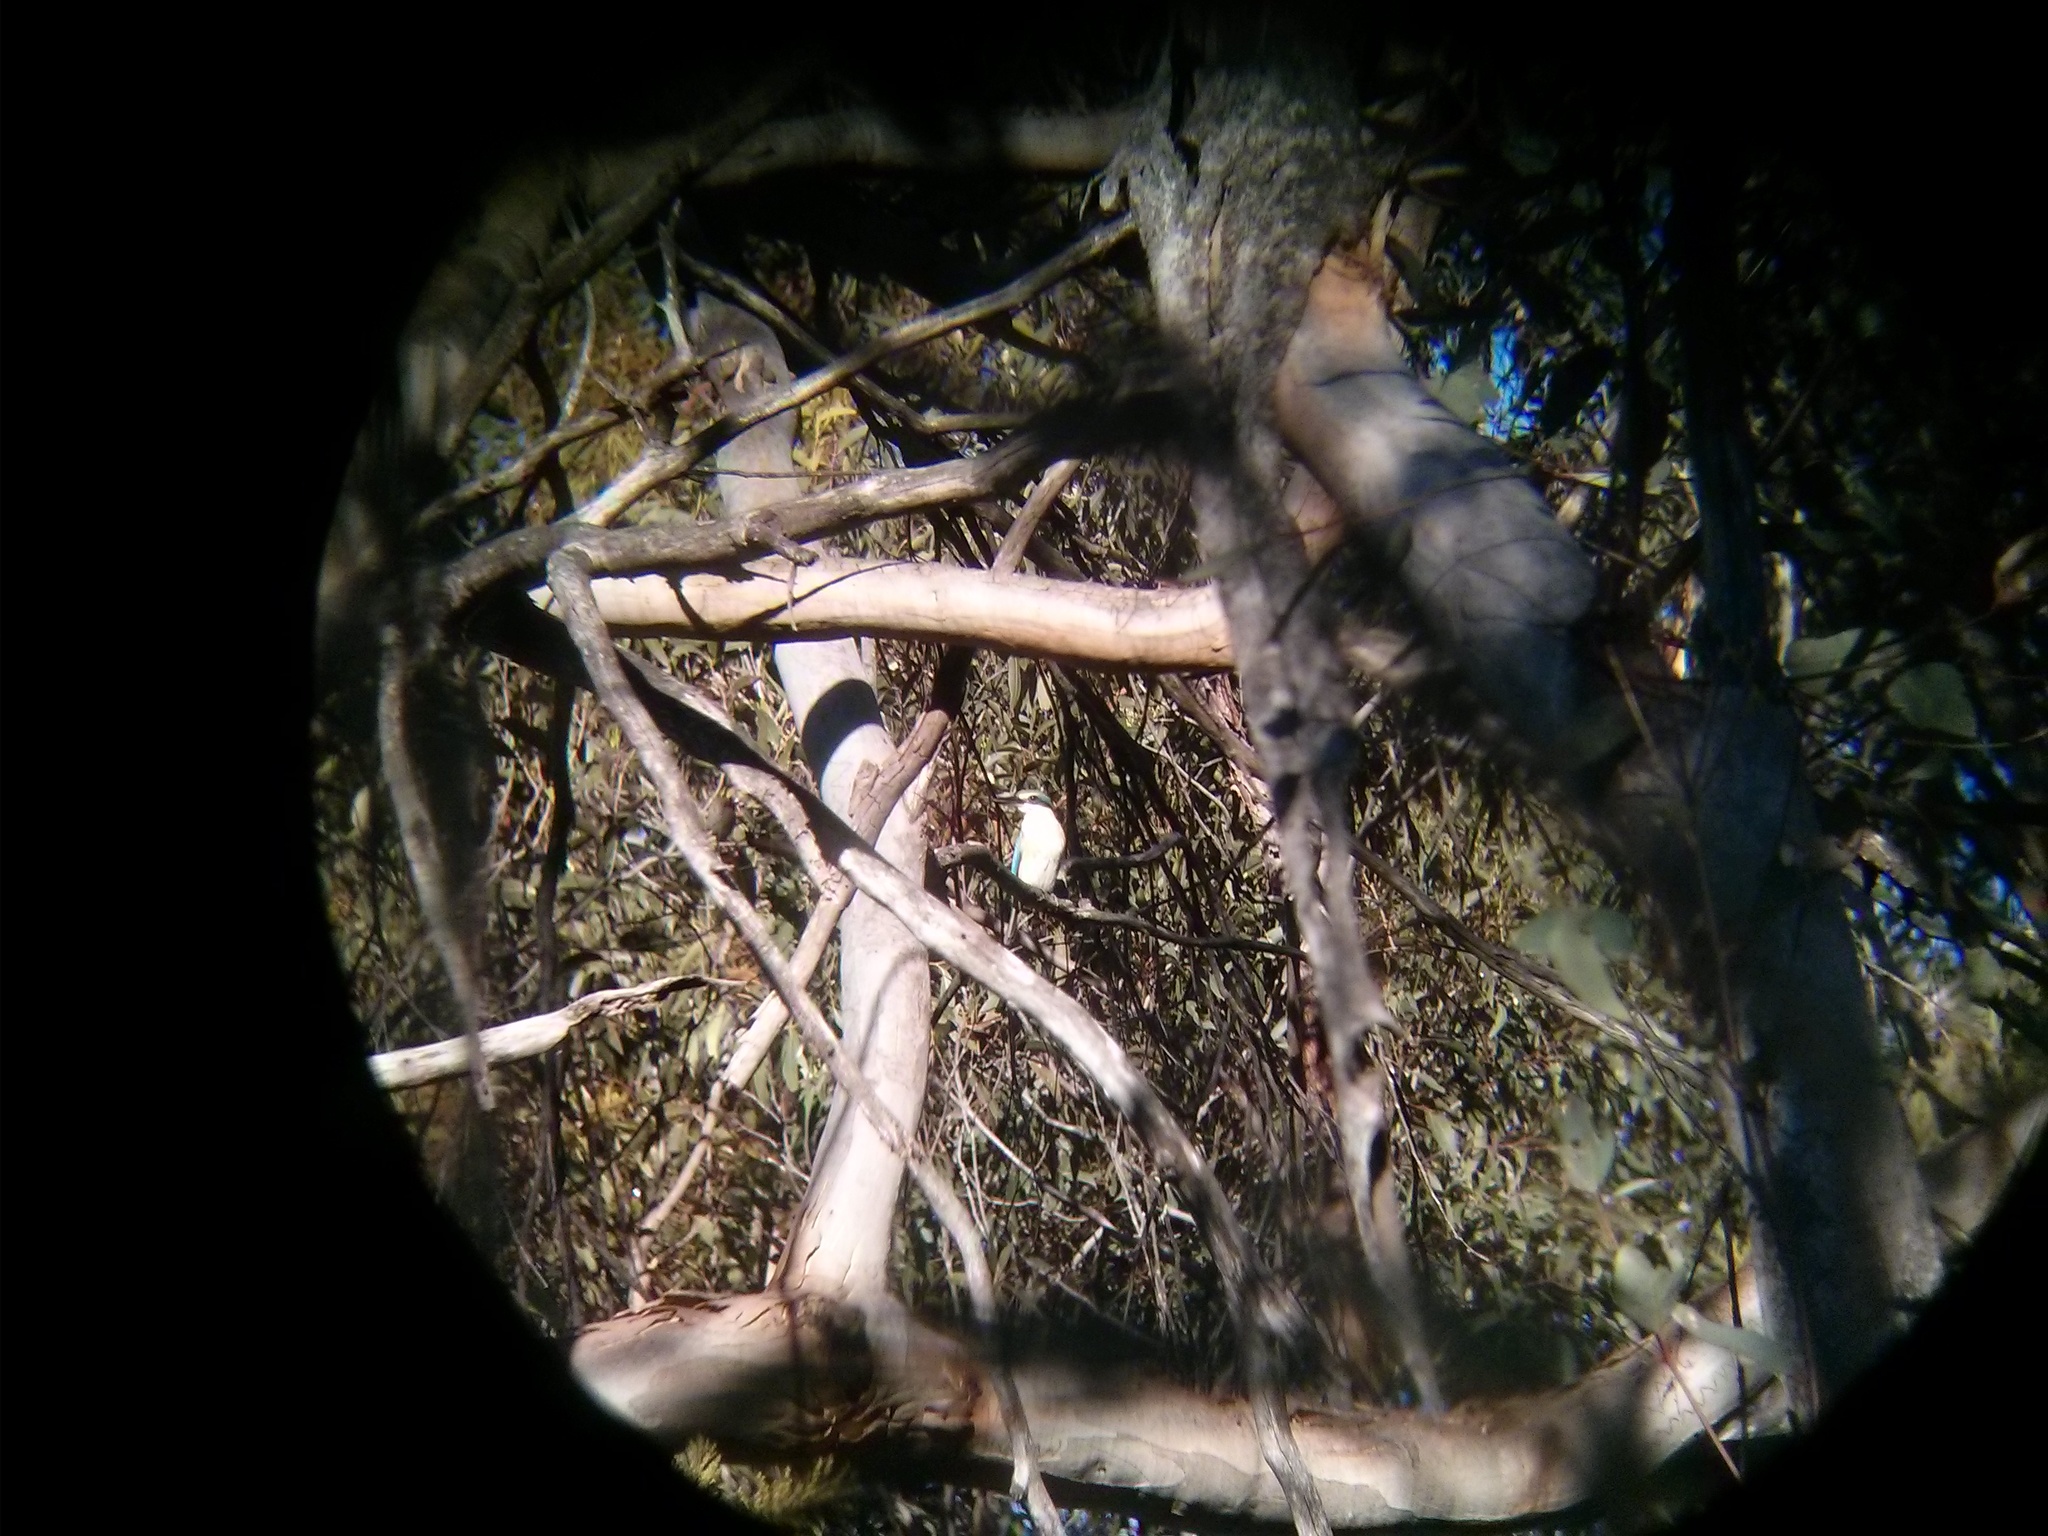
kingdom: Animalia
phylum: Chordata
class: Aves
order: Coraciiformes
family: Alcedinidae
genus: Todiramphus
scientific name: Todiramphus sanctus
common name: Sacred kingfisher
